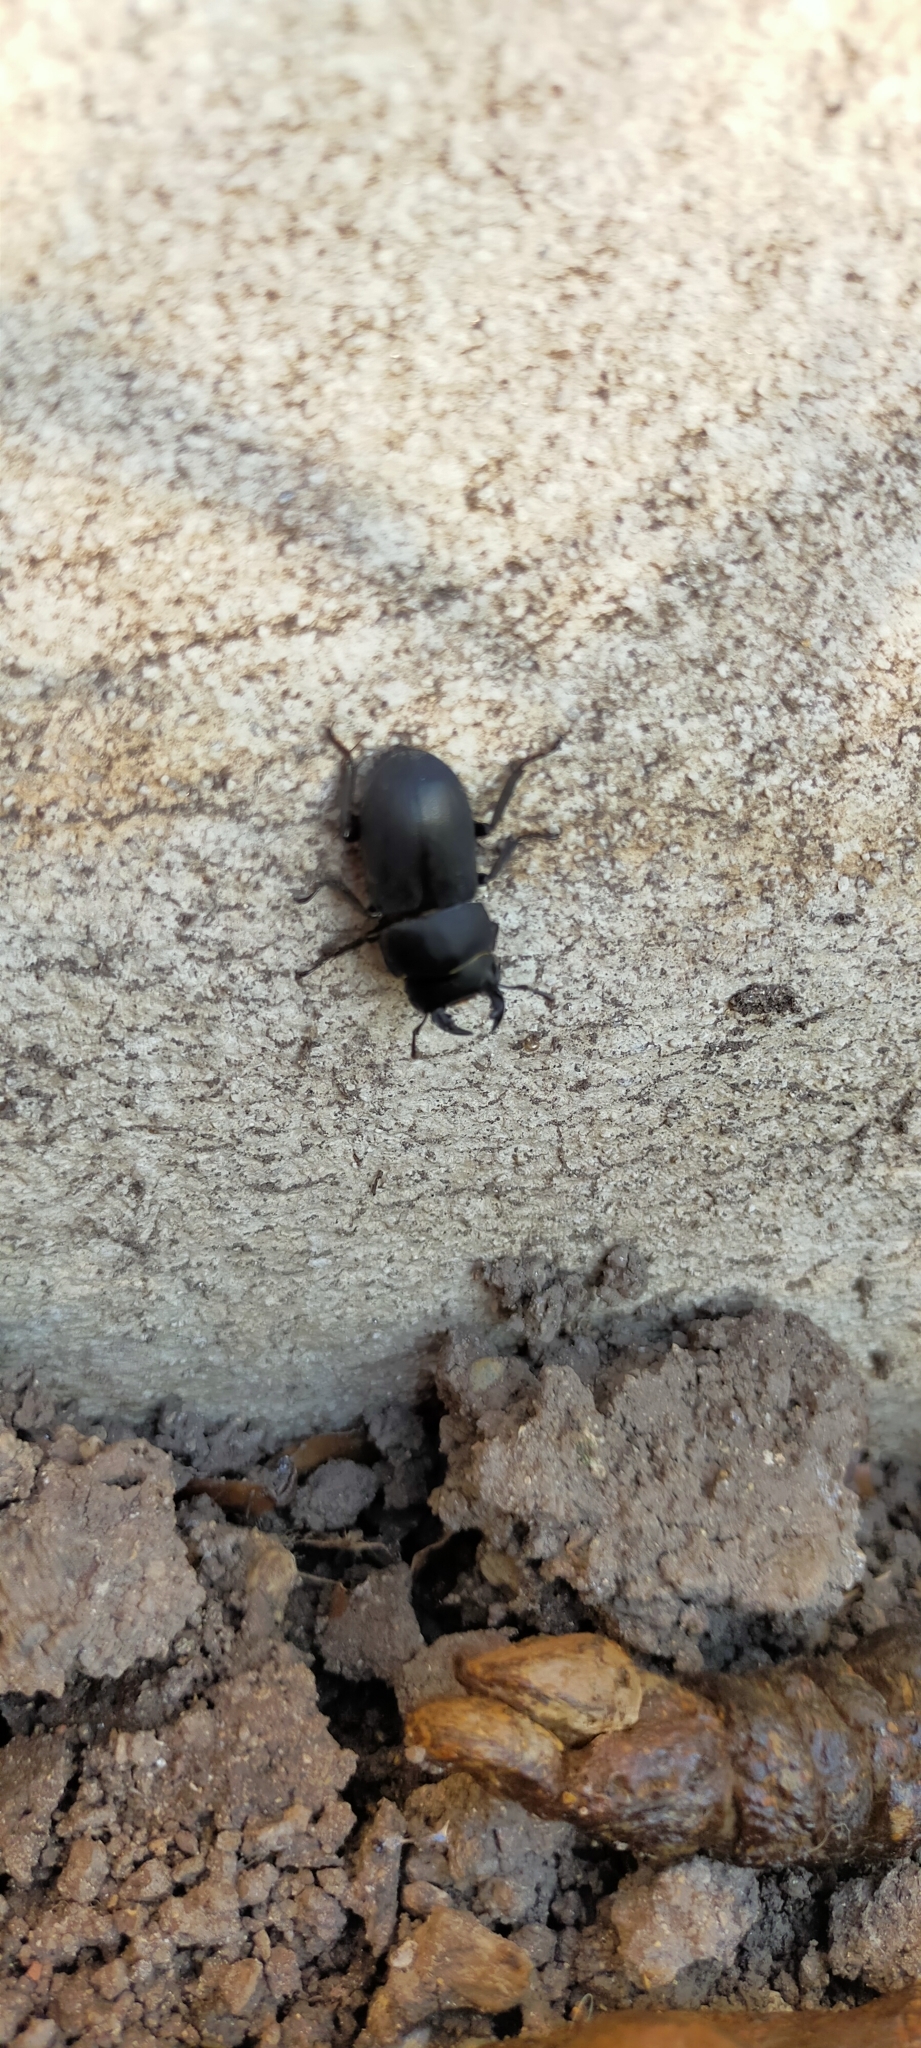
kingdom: Animalia
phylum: Arthropoda
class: Insecta
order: Coleoptera
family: Lucanidae
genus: Dorcus
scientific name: Dorcus parallelipipedus
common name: Lesser stag beetle
